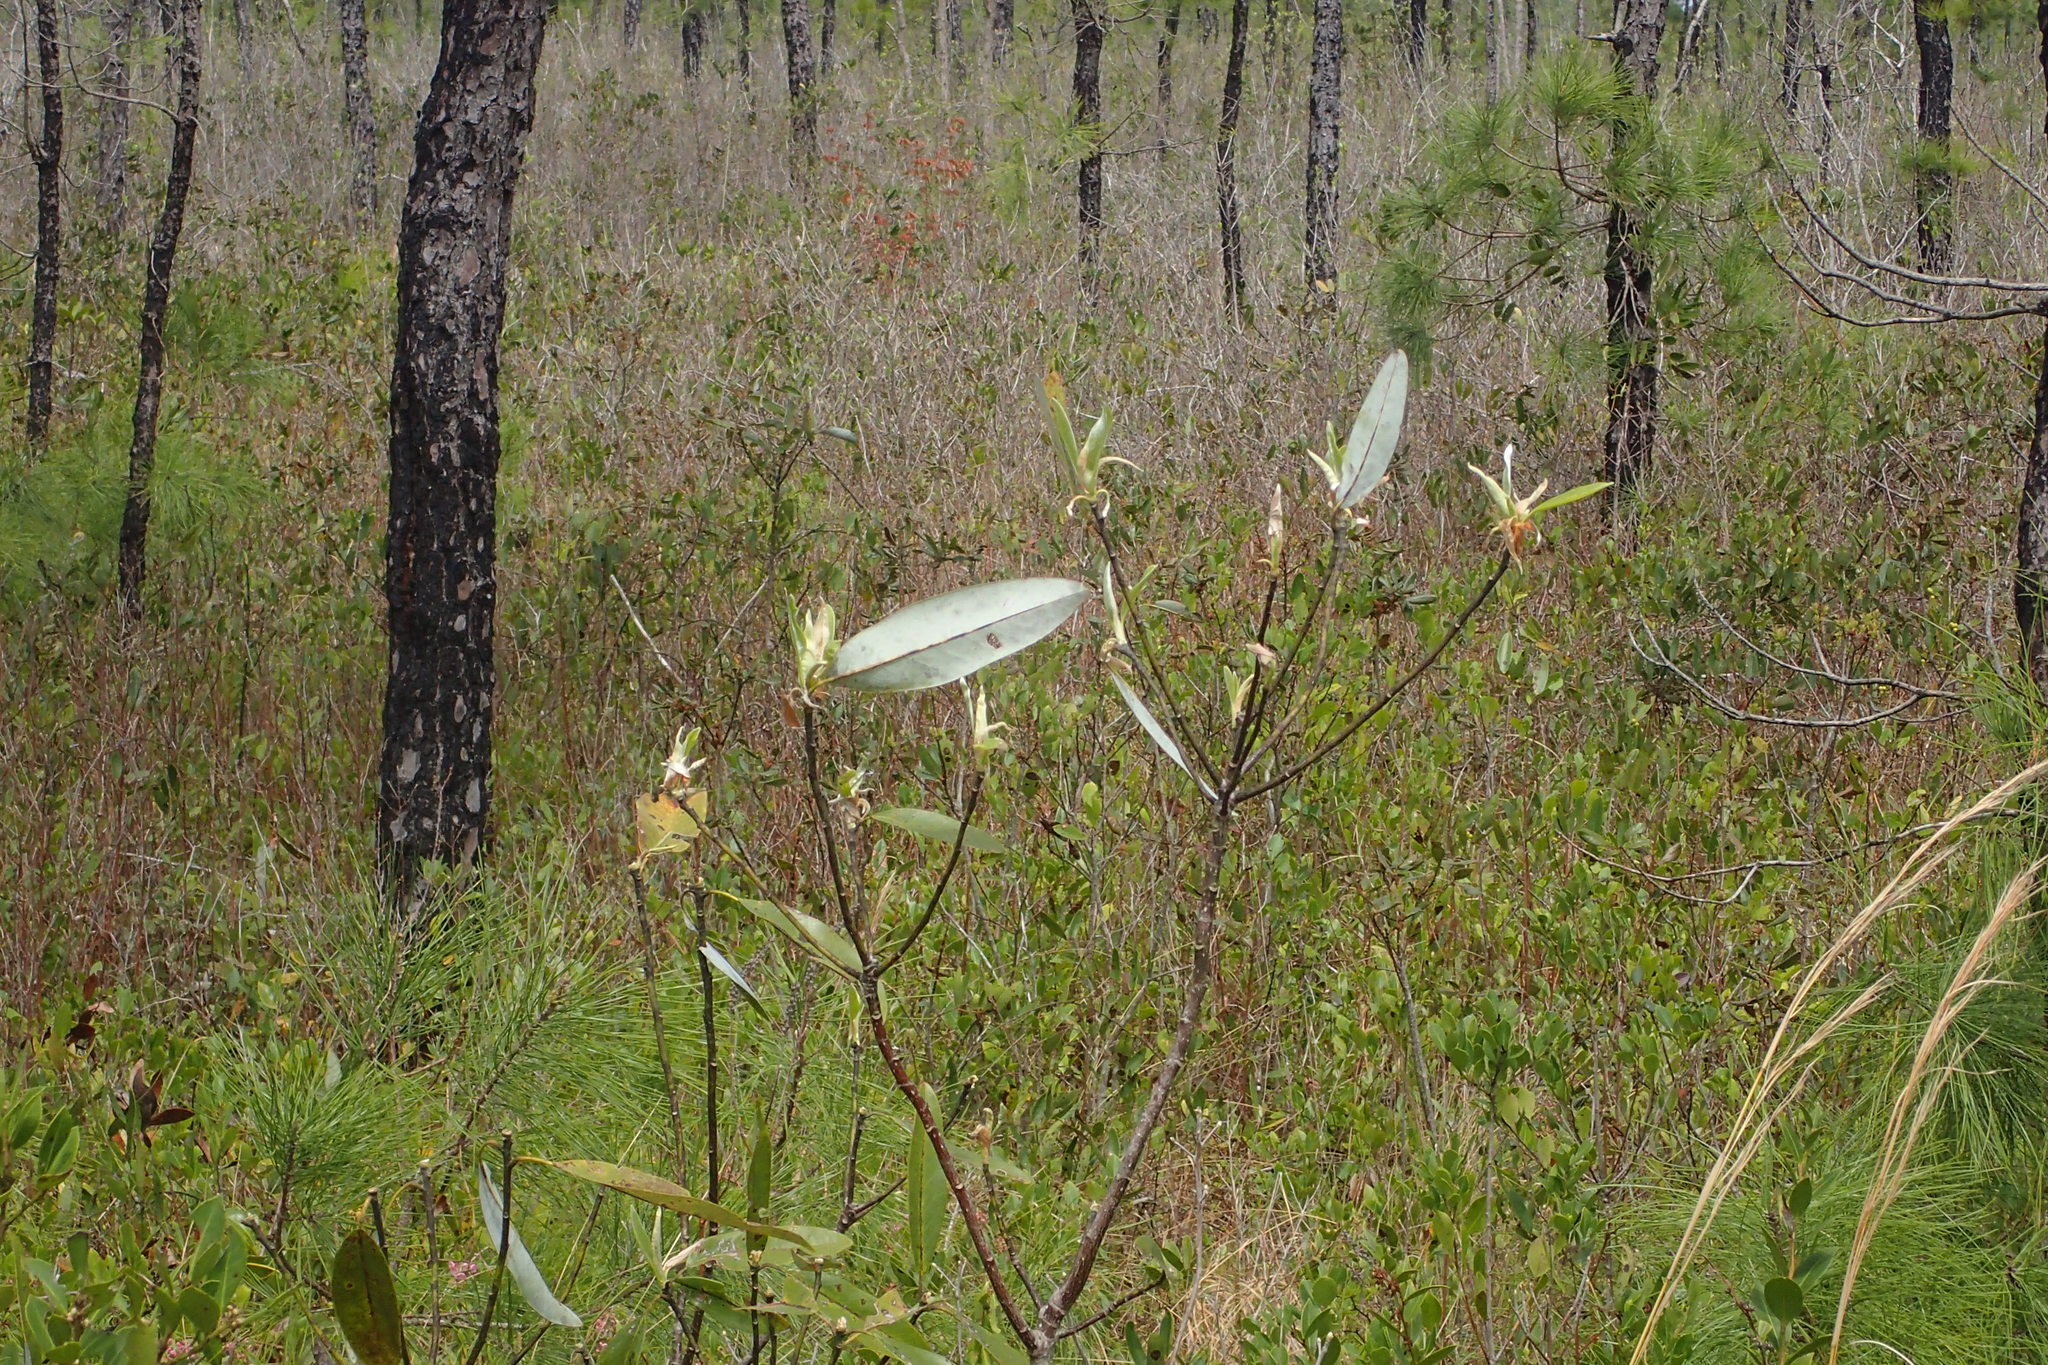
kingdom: Plantae
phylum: Tracheophyta
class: Magnoliopsida
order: Magnoliales
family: Magnoliaceae
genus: Magnolia
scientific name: Magnolia virginiana
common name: Swamp bay
